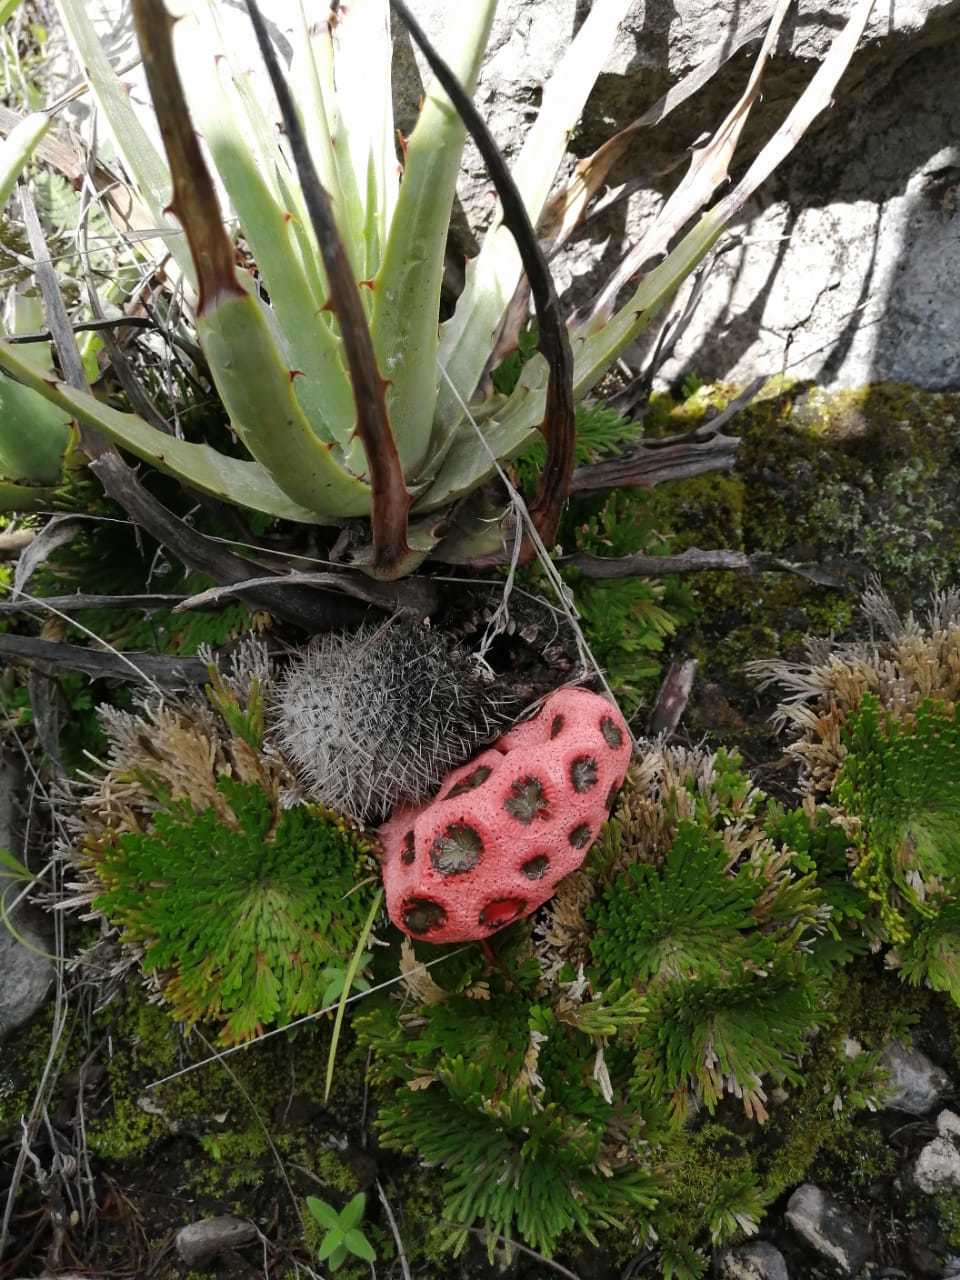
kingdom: Fungi
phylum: Basidiomycota
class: Agaricomycetes
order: Phallales
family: Phallaceae
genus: Clathrus
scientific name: Clathrus crispatus
